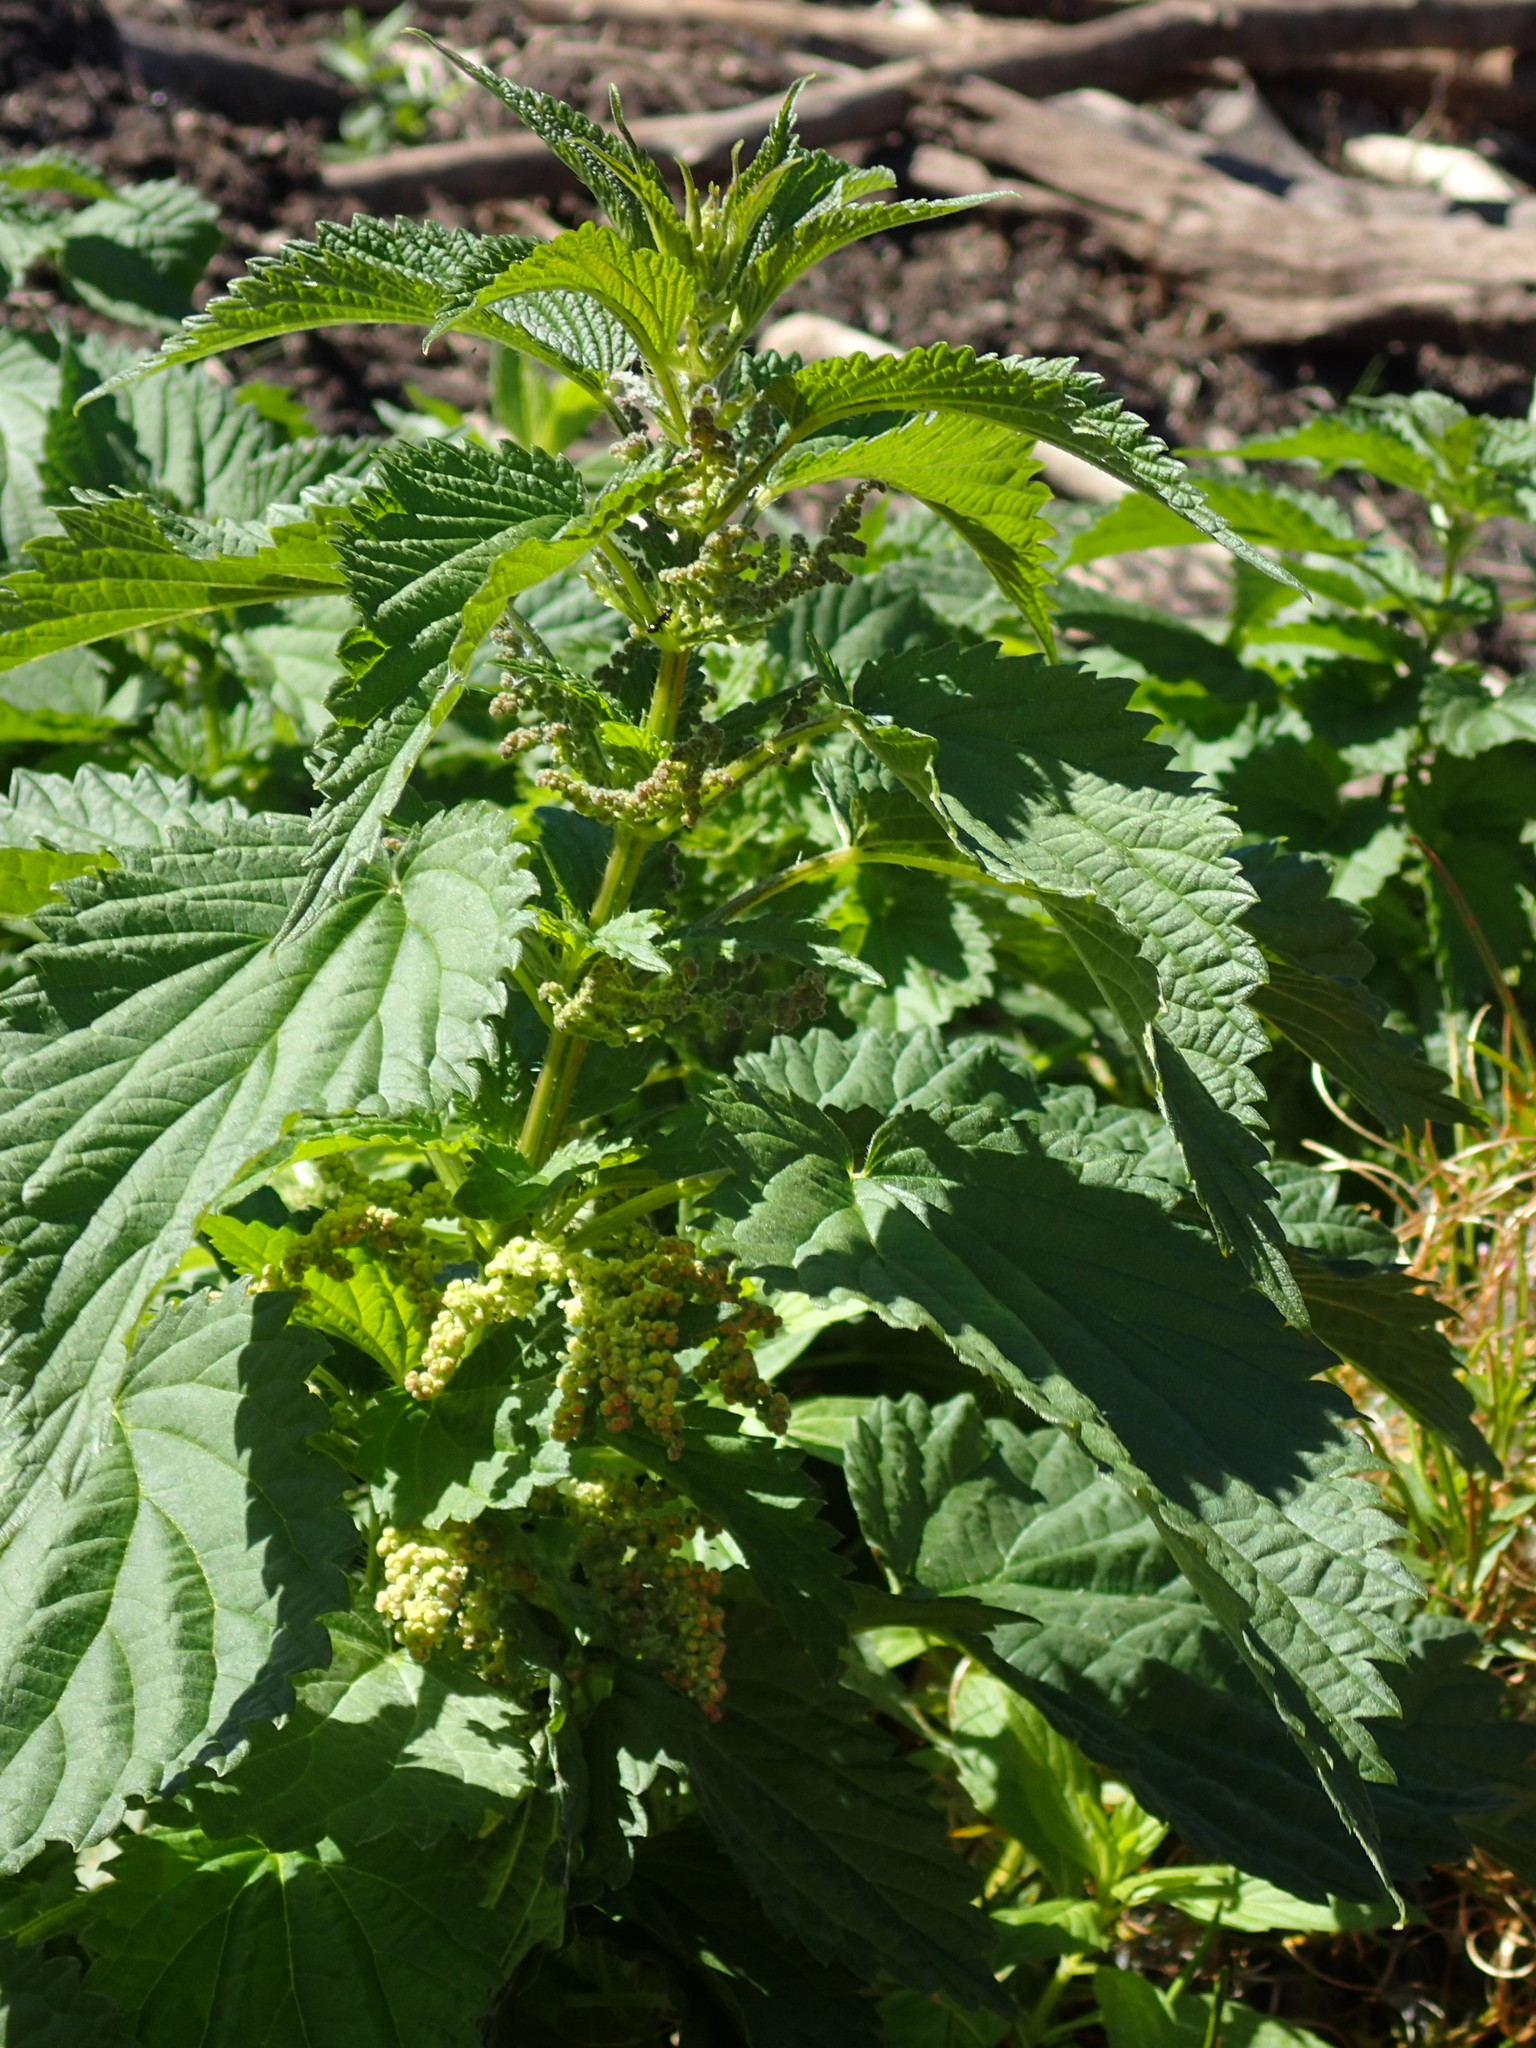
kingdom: Plantae
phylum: Tracheophyta
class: Magnoliopsida
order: Rosales
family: Urticaceae
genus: Urtica
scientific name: Urtica gracilis
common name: Slender stinging nettle
